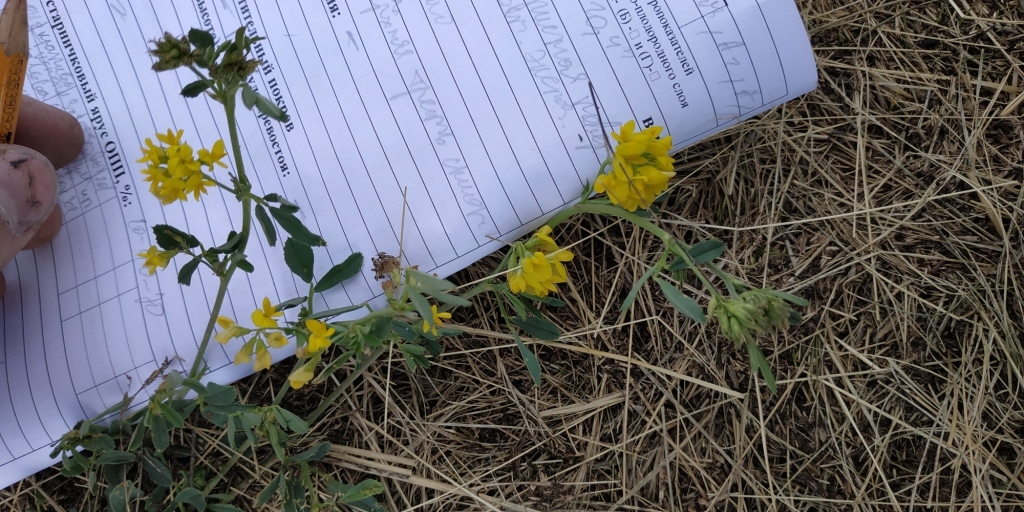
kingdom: Plantae
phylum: Tracheophyta
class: Magnoliopsida
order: Fabales
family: Fabaceae
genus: Medicago
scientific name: Medicago falcata
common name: Sickle medick
